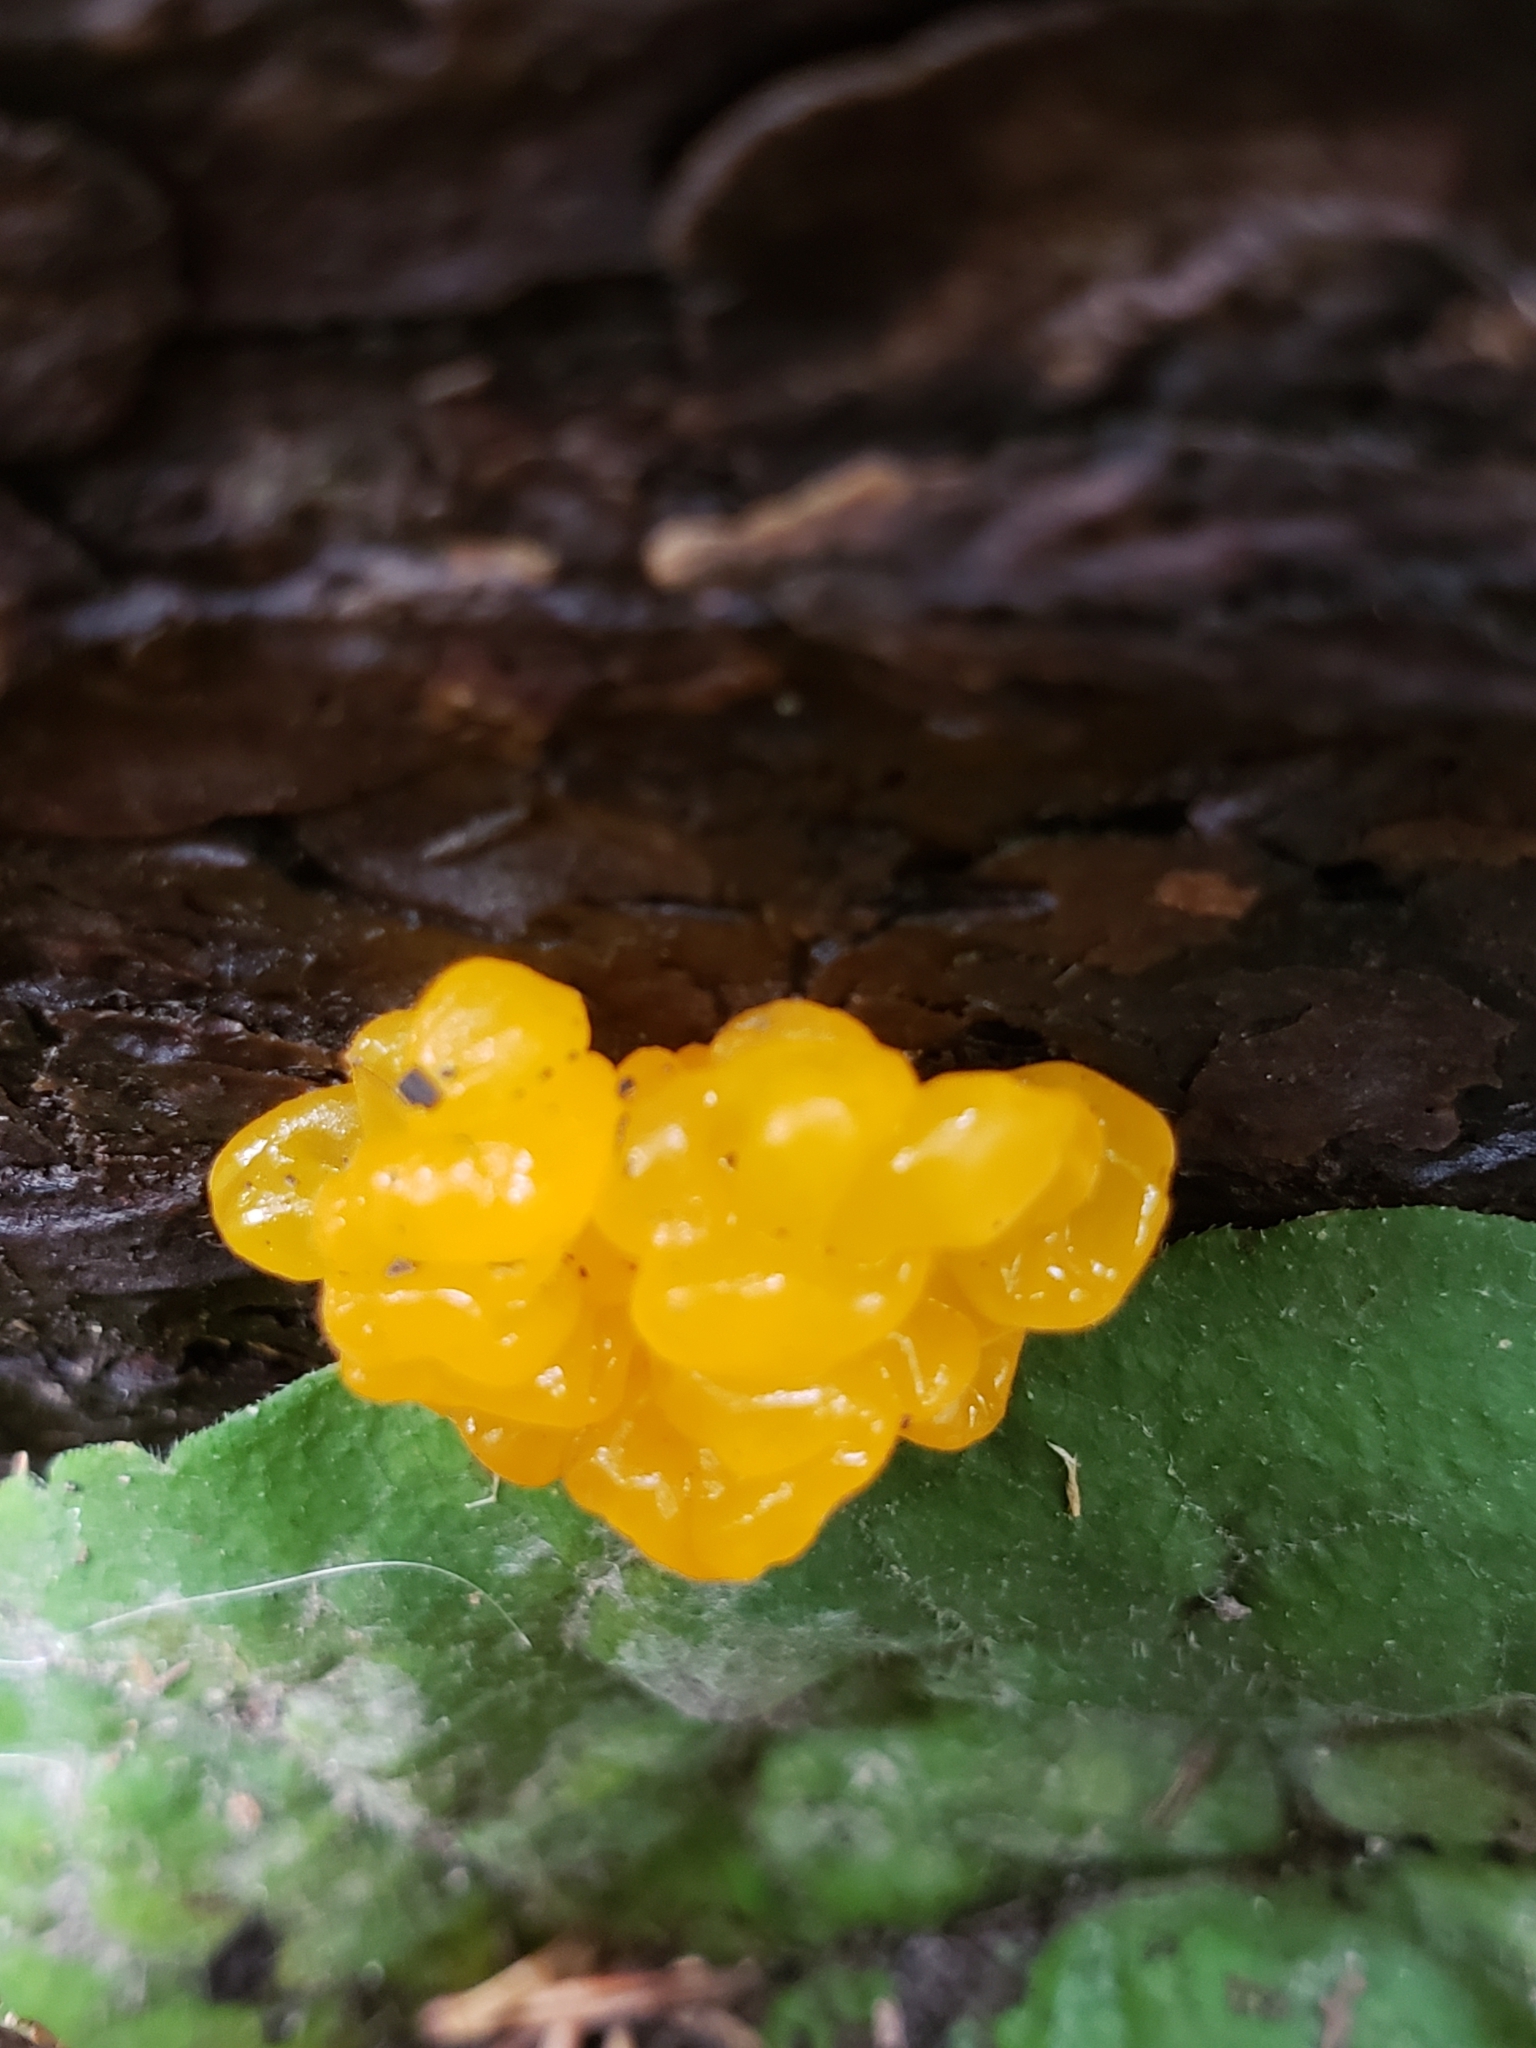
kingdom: Fungi
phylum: Basidiomycota
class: Dacrymycetes
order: Dacrymycetales
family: Dacrymycetaceae
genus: Dacrymyces
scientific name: Dacrymyces chrysospermus
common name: Orange jelly spot
